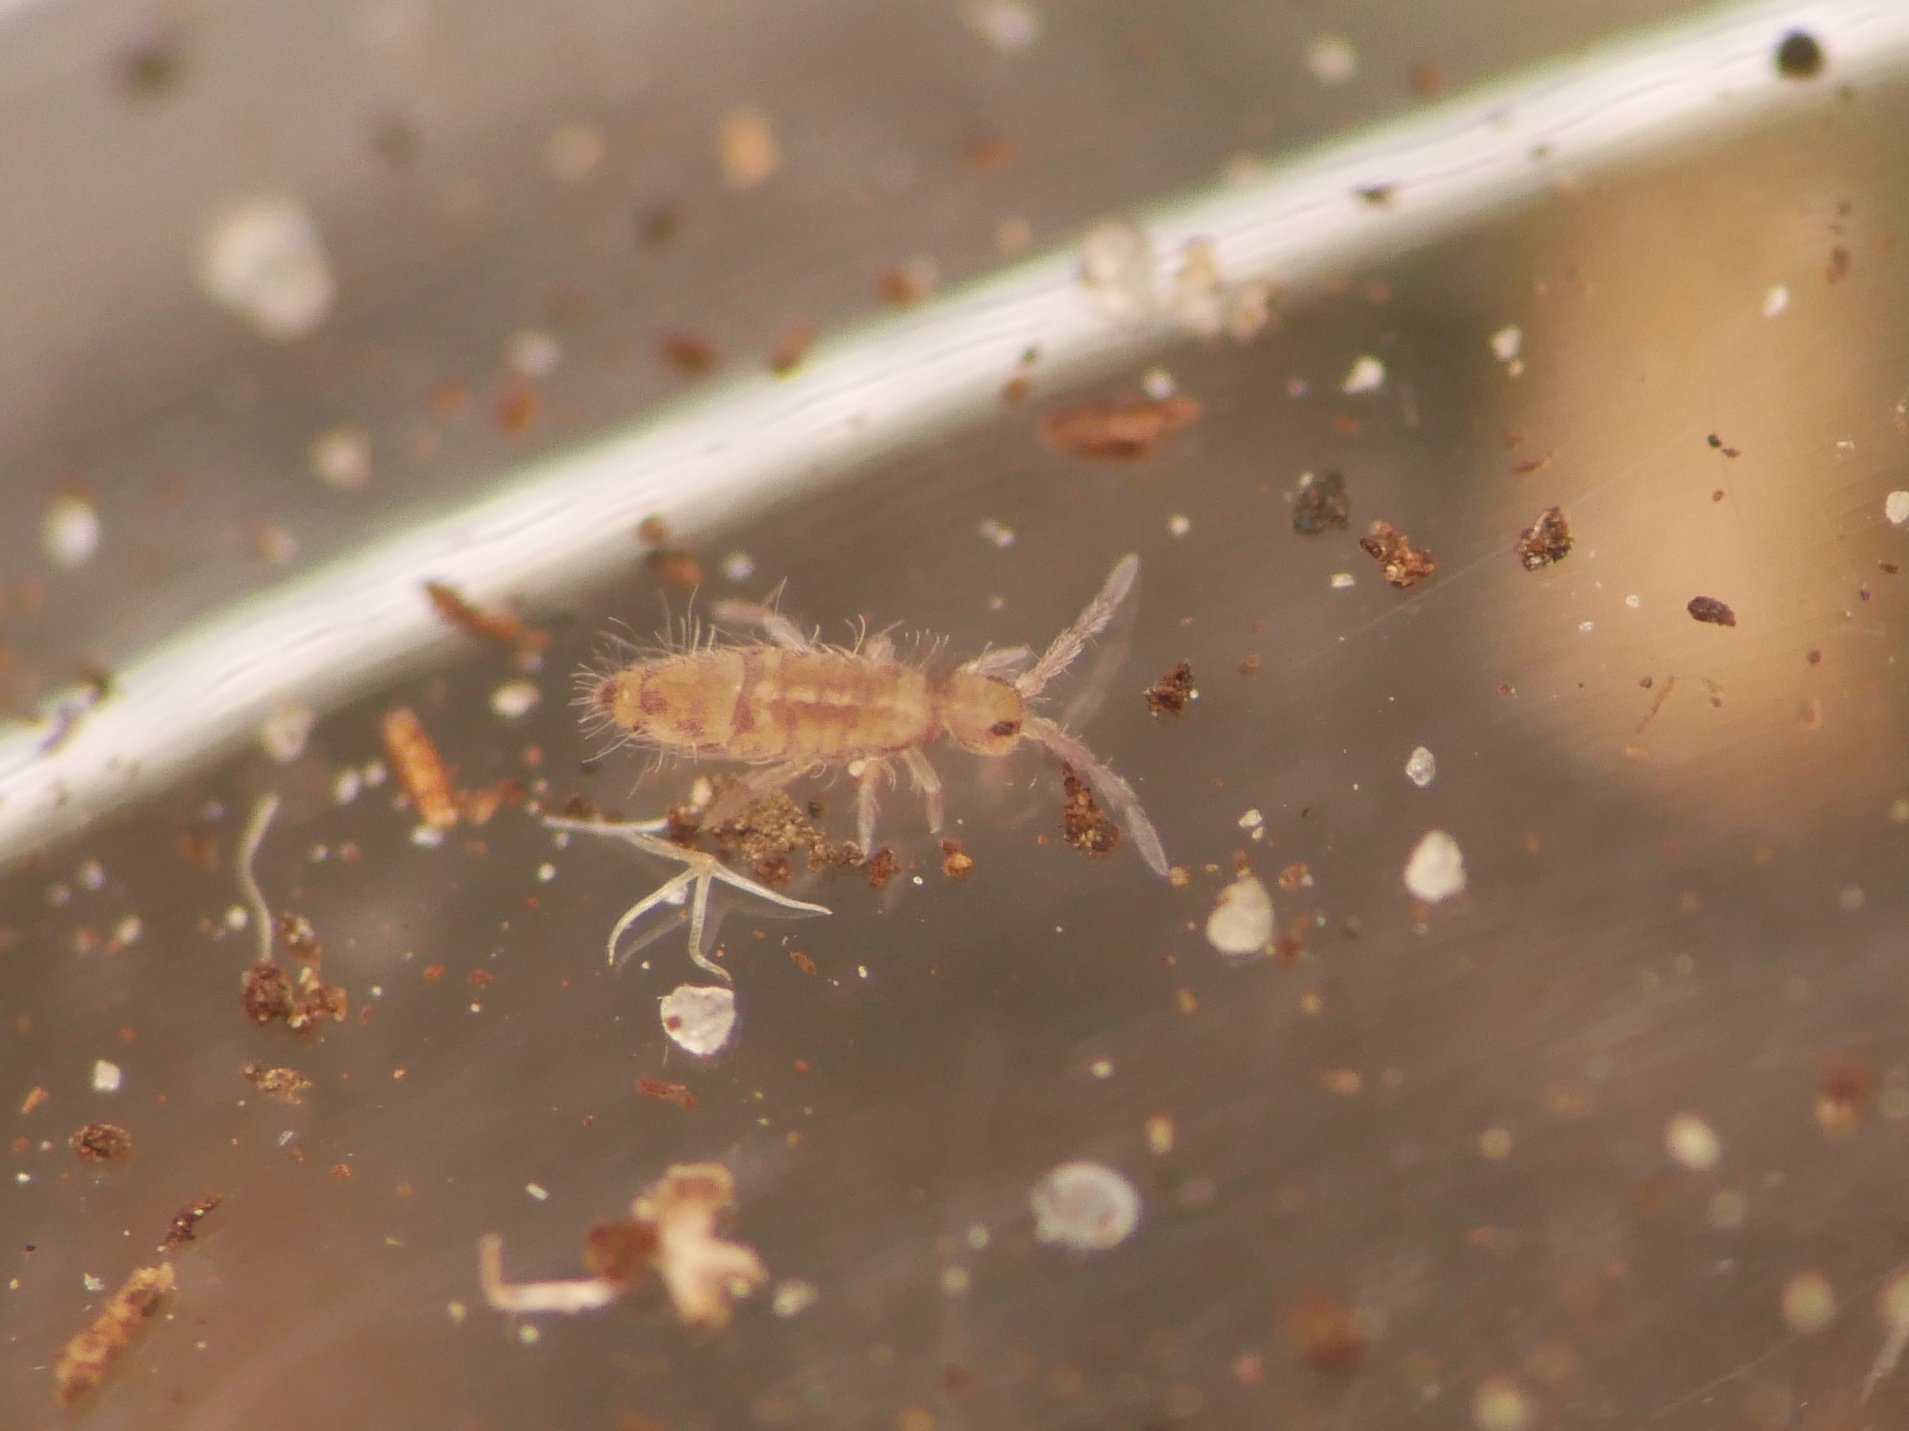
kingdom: Animalia
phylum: Arthropoda
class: Collembola
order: Entomobryomorpha
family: Entomobryidae
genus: Entomobrya
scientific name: Entomobrya multifasciata
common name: Springtail
